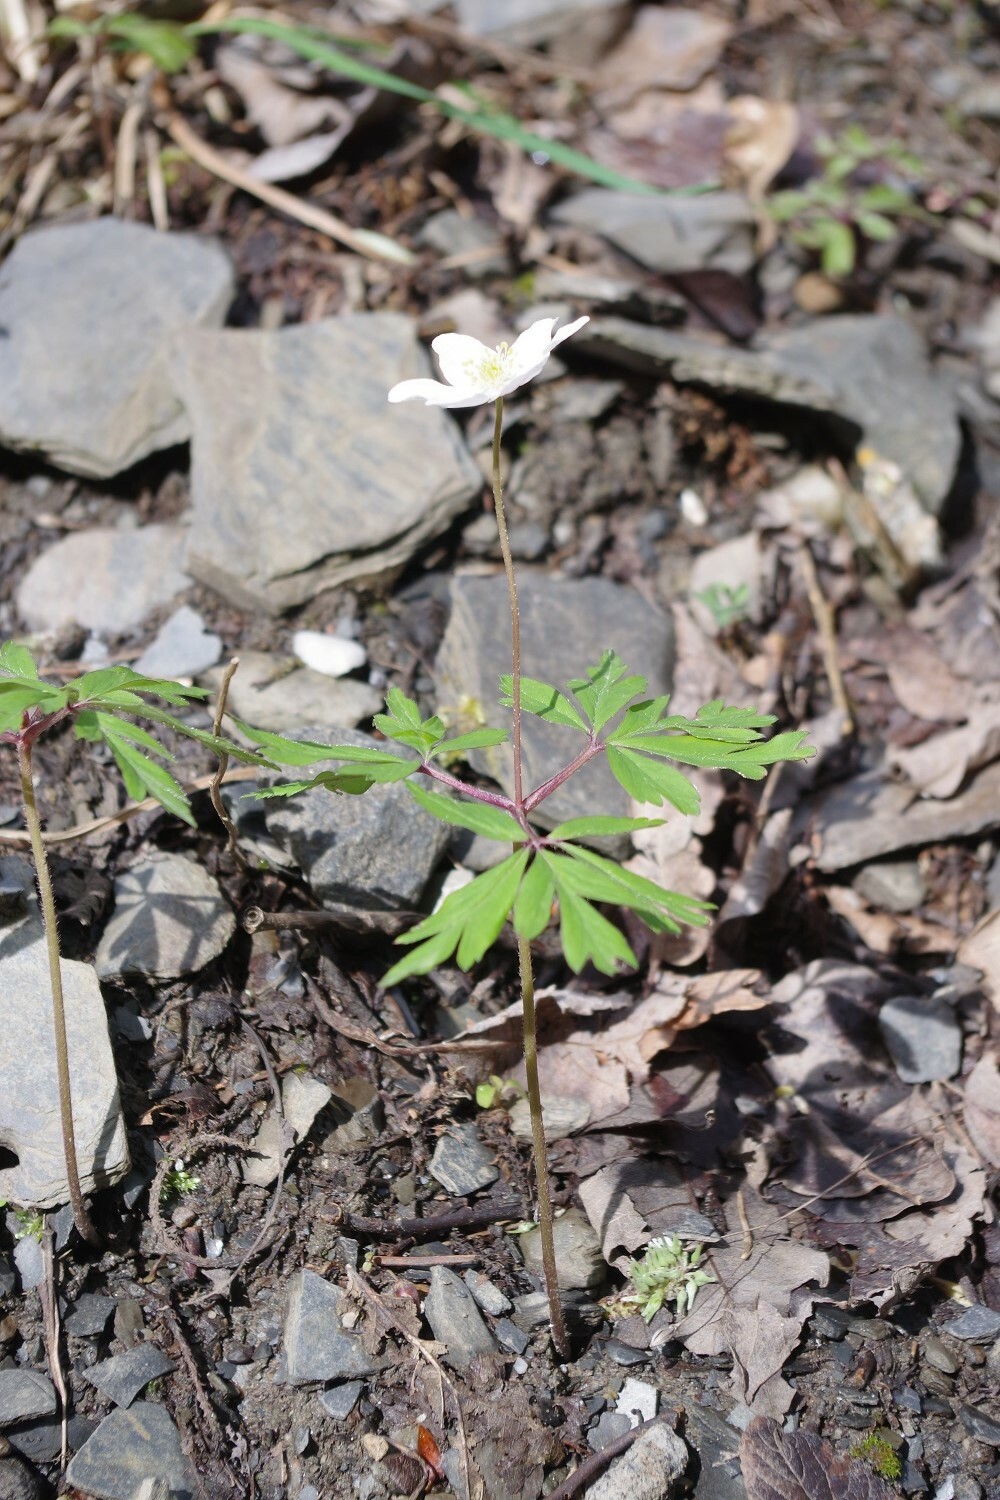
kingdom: Plantae
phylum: Tracheophyta
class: Magnoliopsida
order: Ranunculales
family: Ranunculaceae
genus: Anemone
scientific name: Anemone nemorosa
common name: Wood anemone
